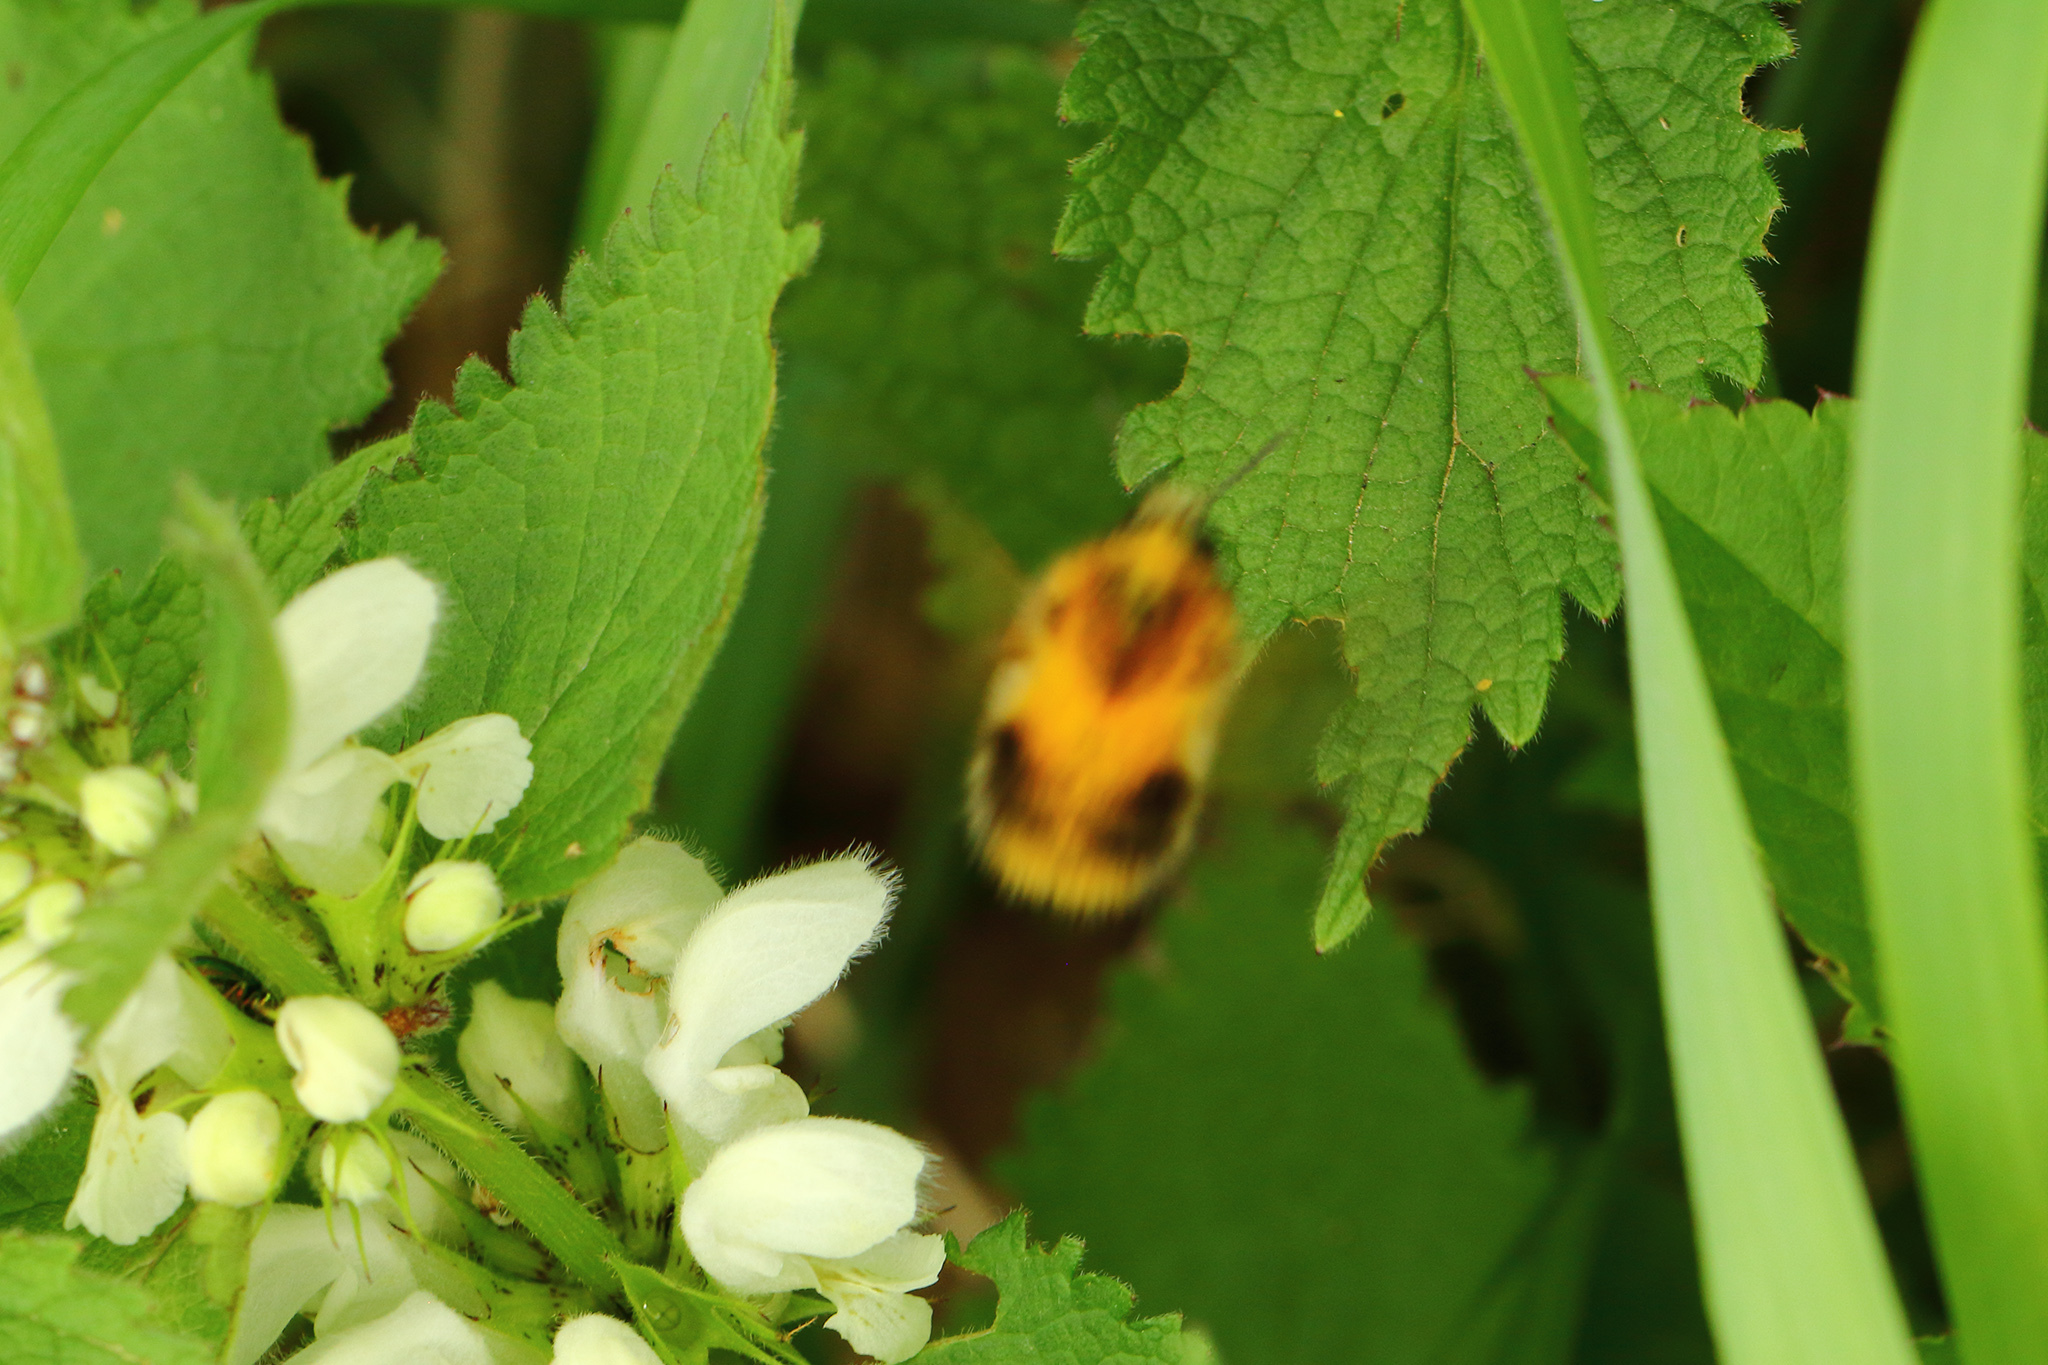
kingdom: Animalia
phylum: Arthropoda
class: Insecta
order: Hymenoptera
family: Apidae
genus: Bombus
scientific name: Bombus pascuorum
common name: Common carder bee
